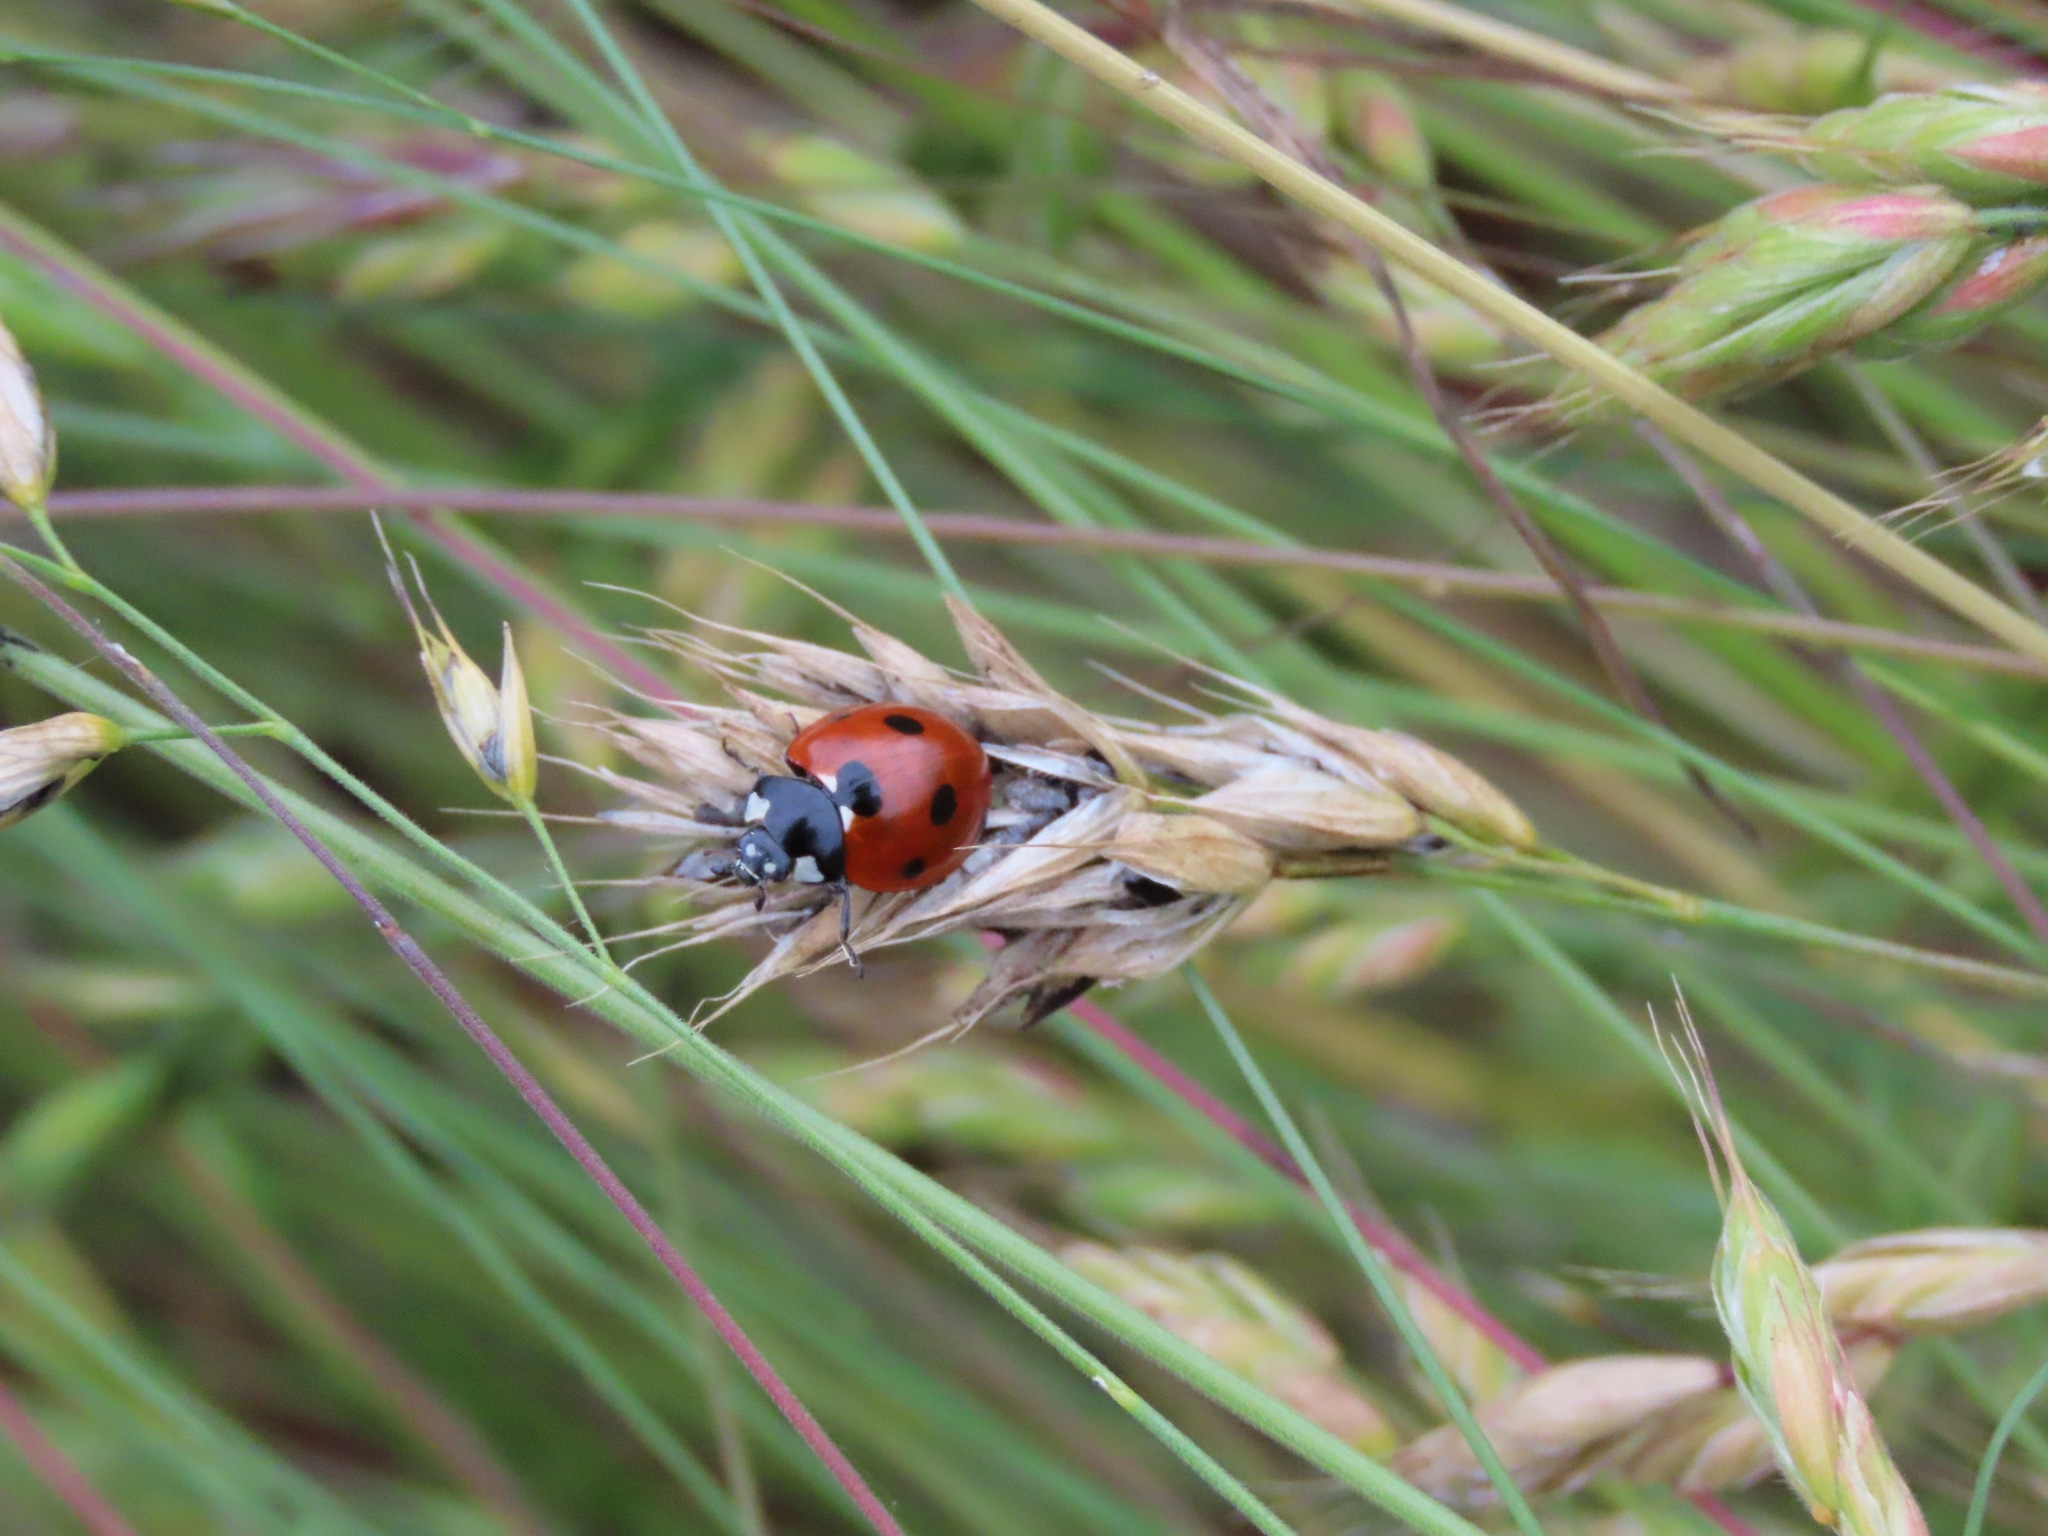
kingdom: Animalia
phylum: Arthropoda
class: Insecta
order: Coleoptera
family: Coccinellidae
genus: Coccinella
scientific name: Coccinella septempunctata
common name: Sevenspotted lady beetle
